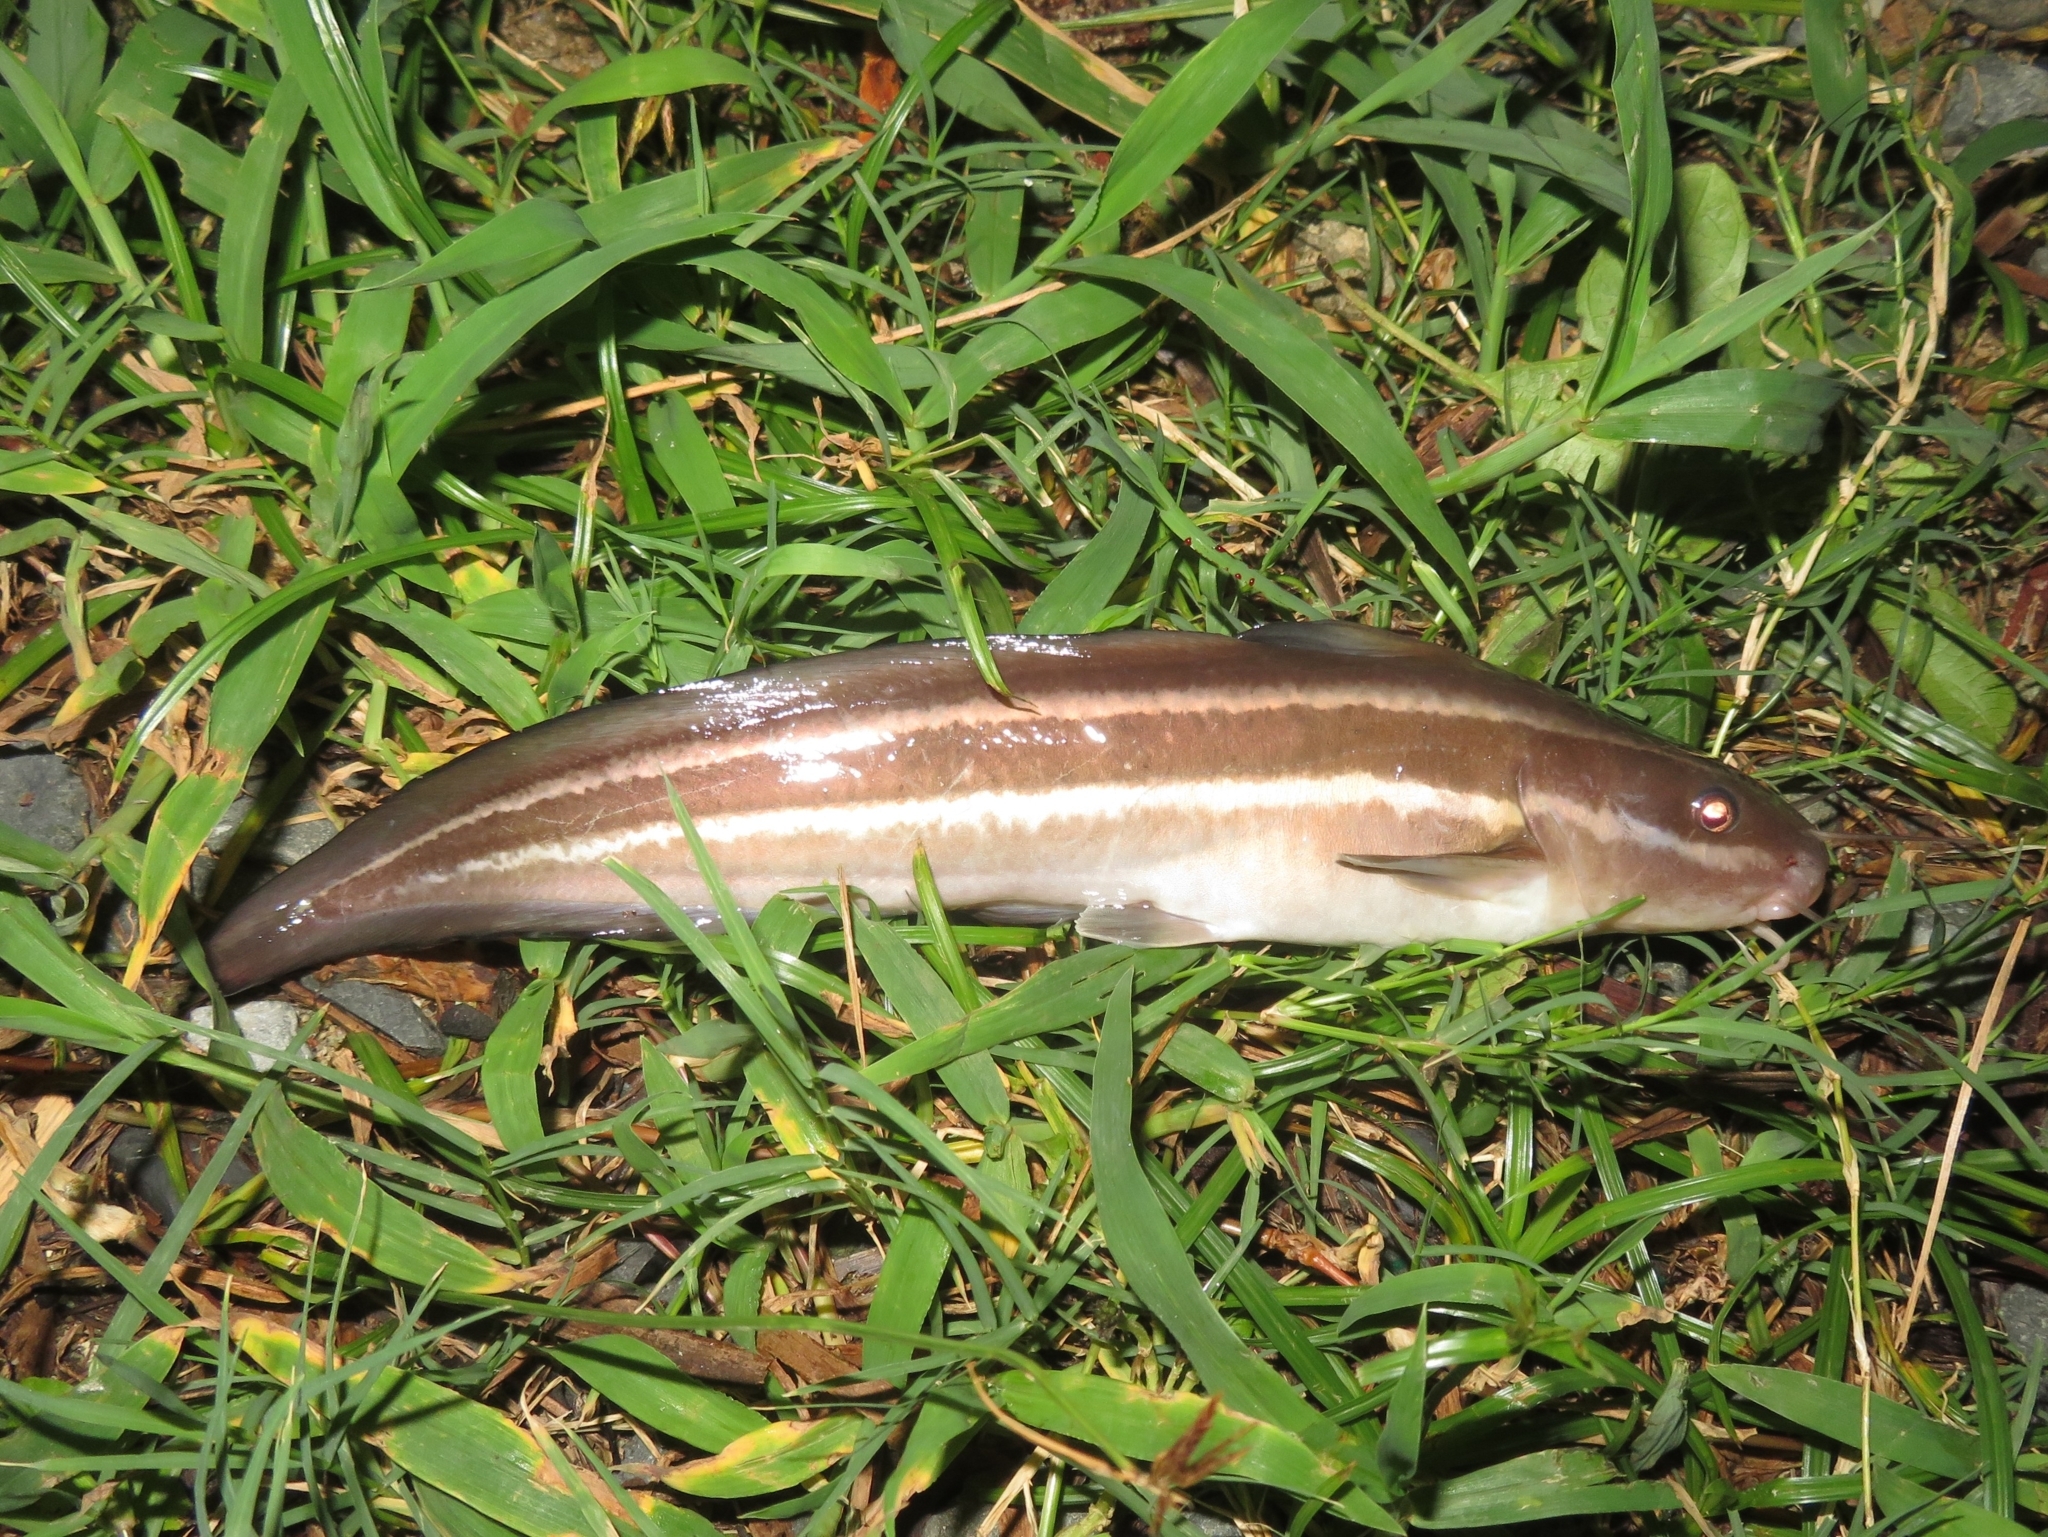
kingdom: Animalia
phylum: Chordata
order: Siluriformes
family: Plotosidae
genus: Plotosus
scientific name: Plotosus lineatus
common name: Striped eel catfish
